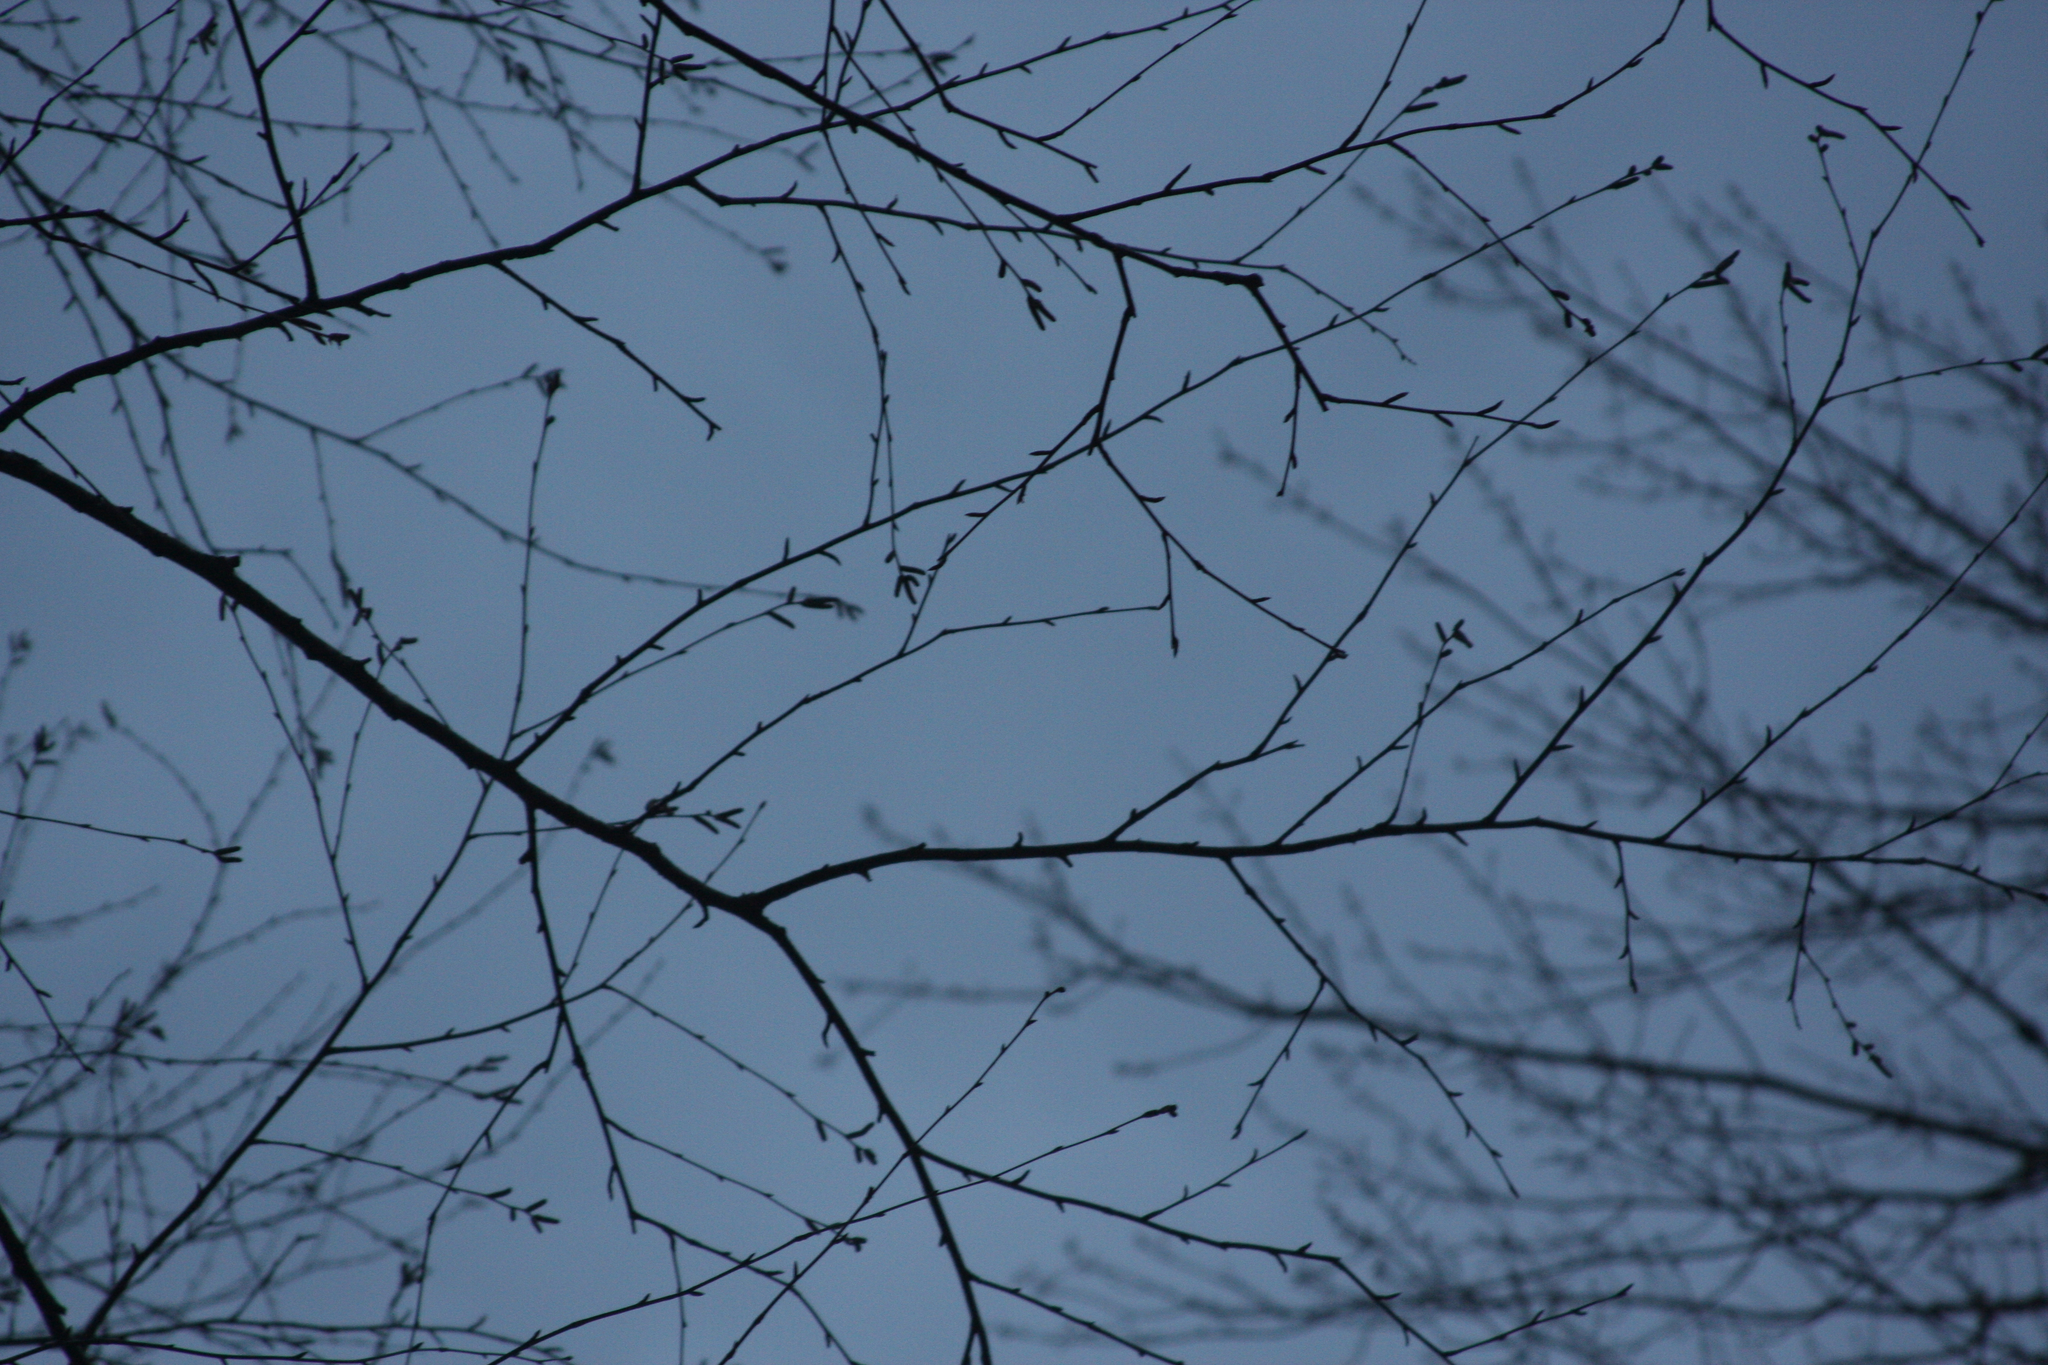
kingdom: Plantae
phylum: Tracheophyta
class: Magnoliopsida
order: Fagales
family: Betulaceae
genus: Betula
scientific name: Betula alleghaniensis
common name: Yellow birch
